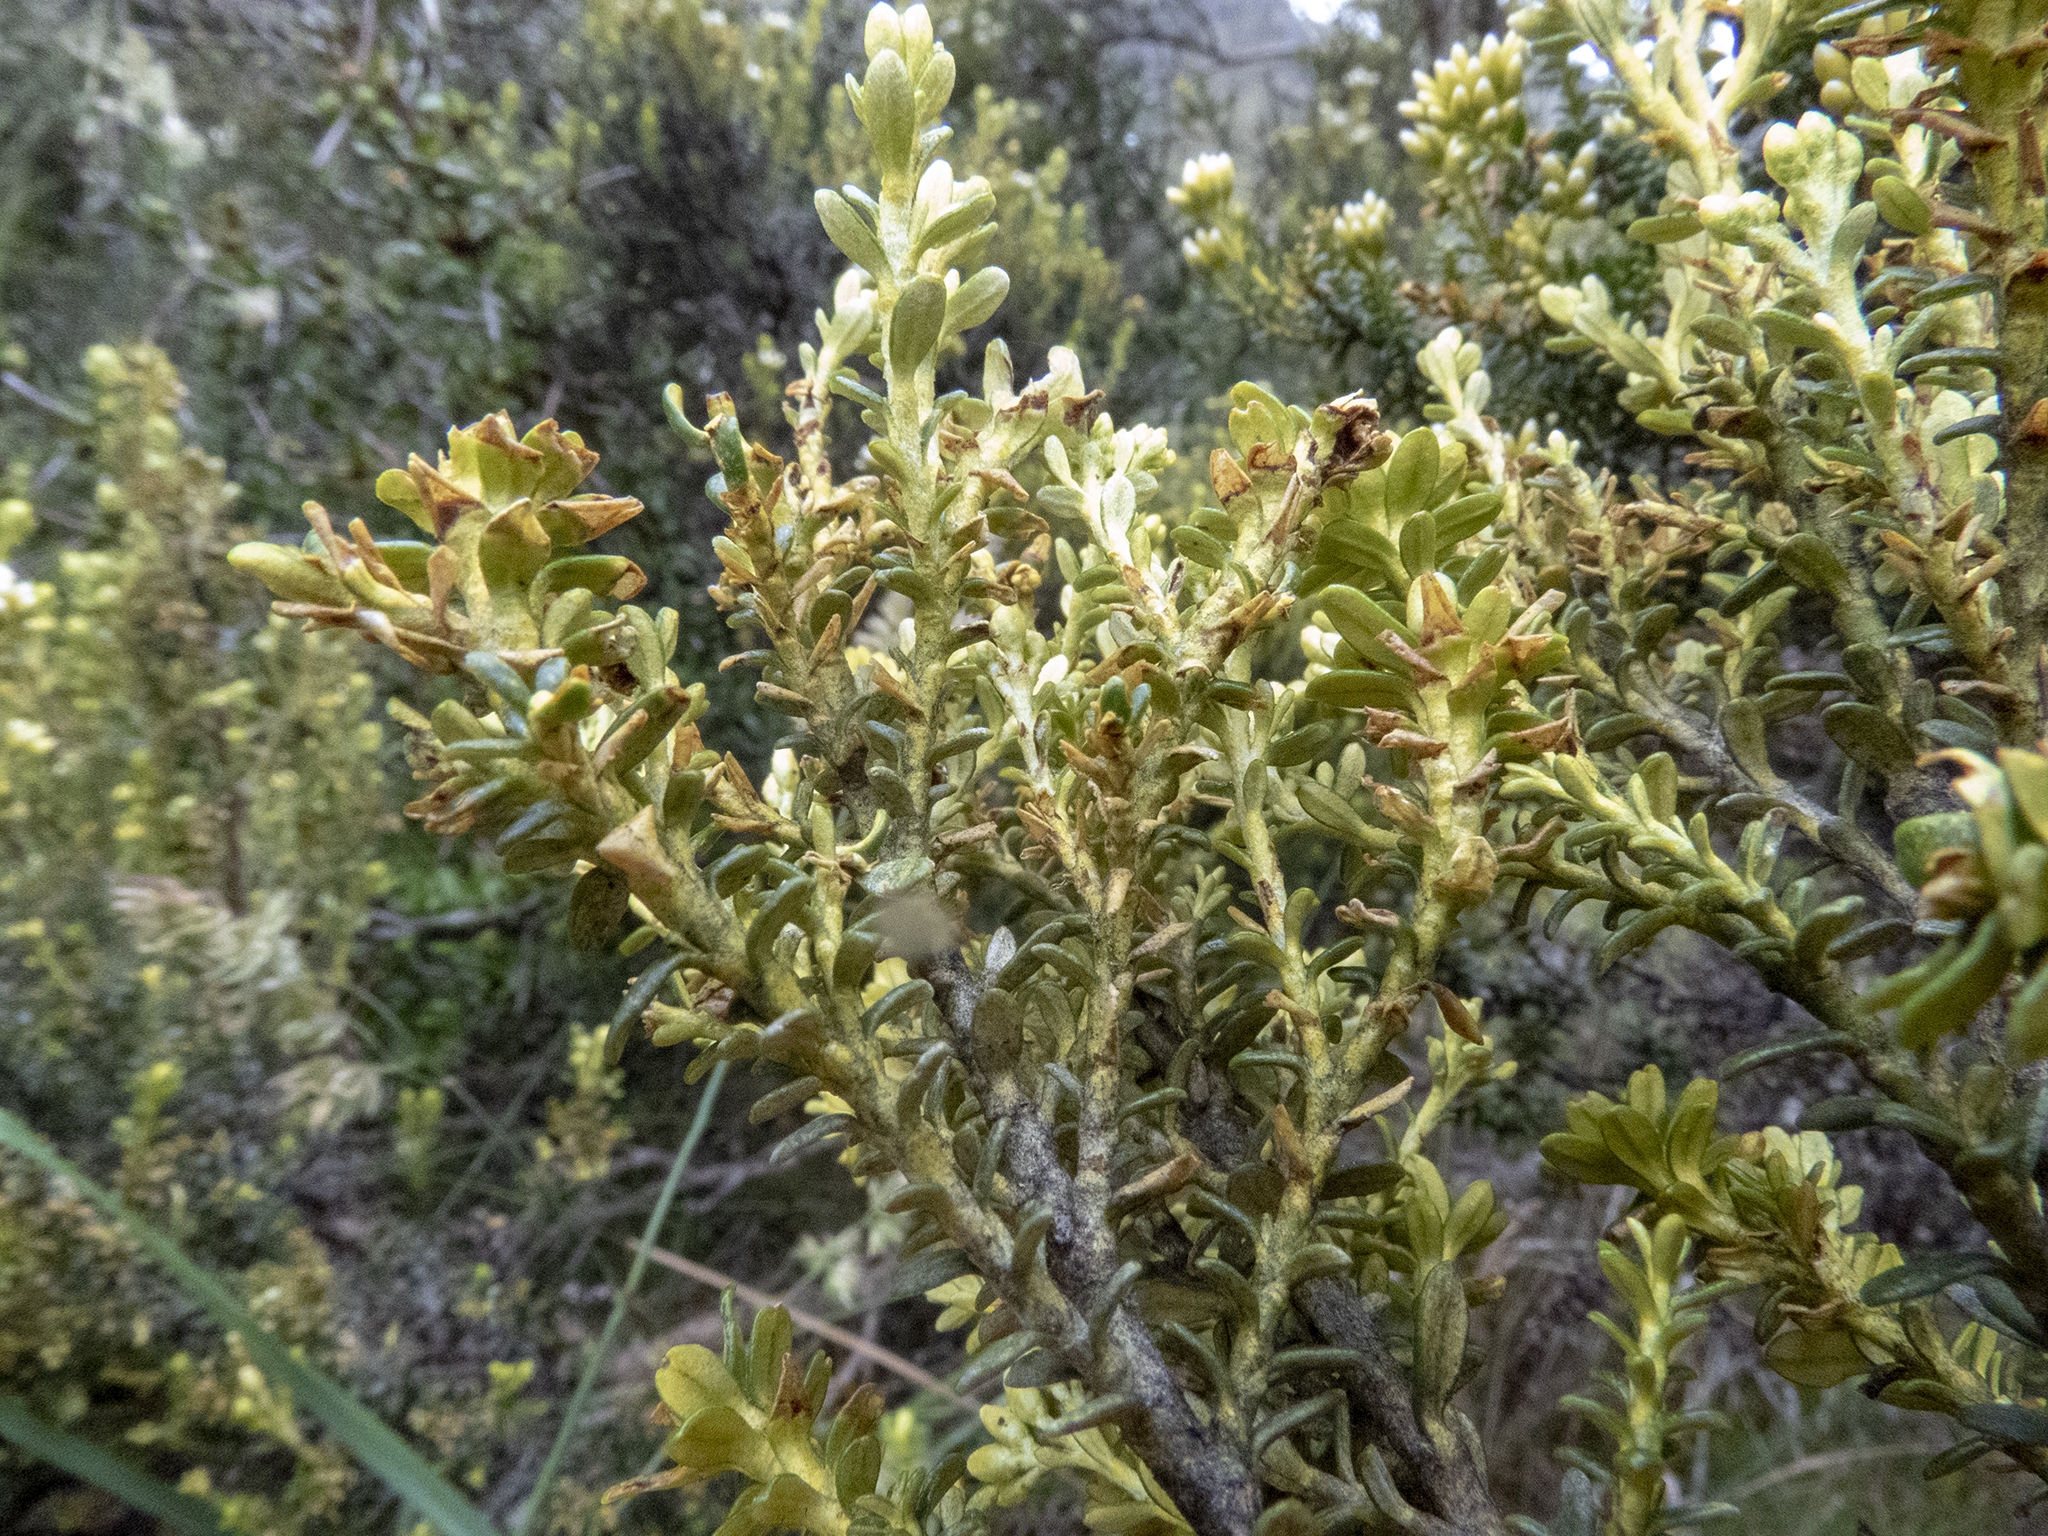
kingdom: Plantae
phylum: Tracheophyta
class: Magnoliopsida
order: Asterales
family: Asteraceae
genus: Ozothamnus
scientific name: Ozothamnus leptophyllus
